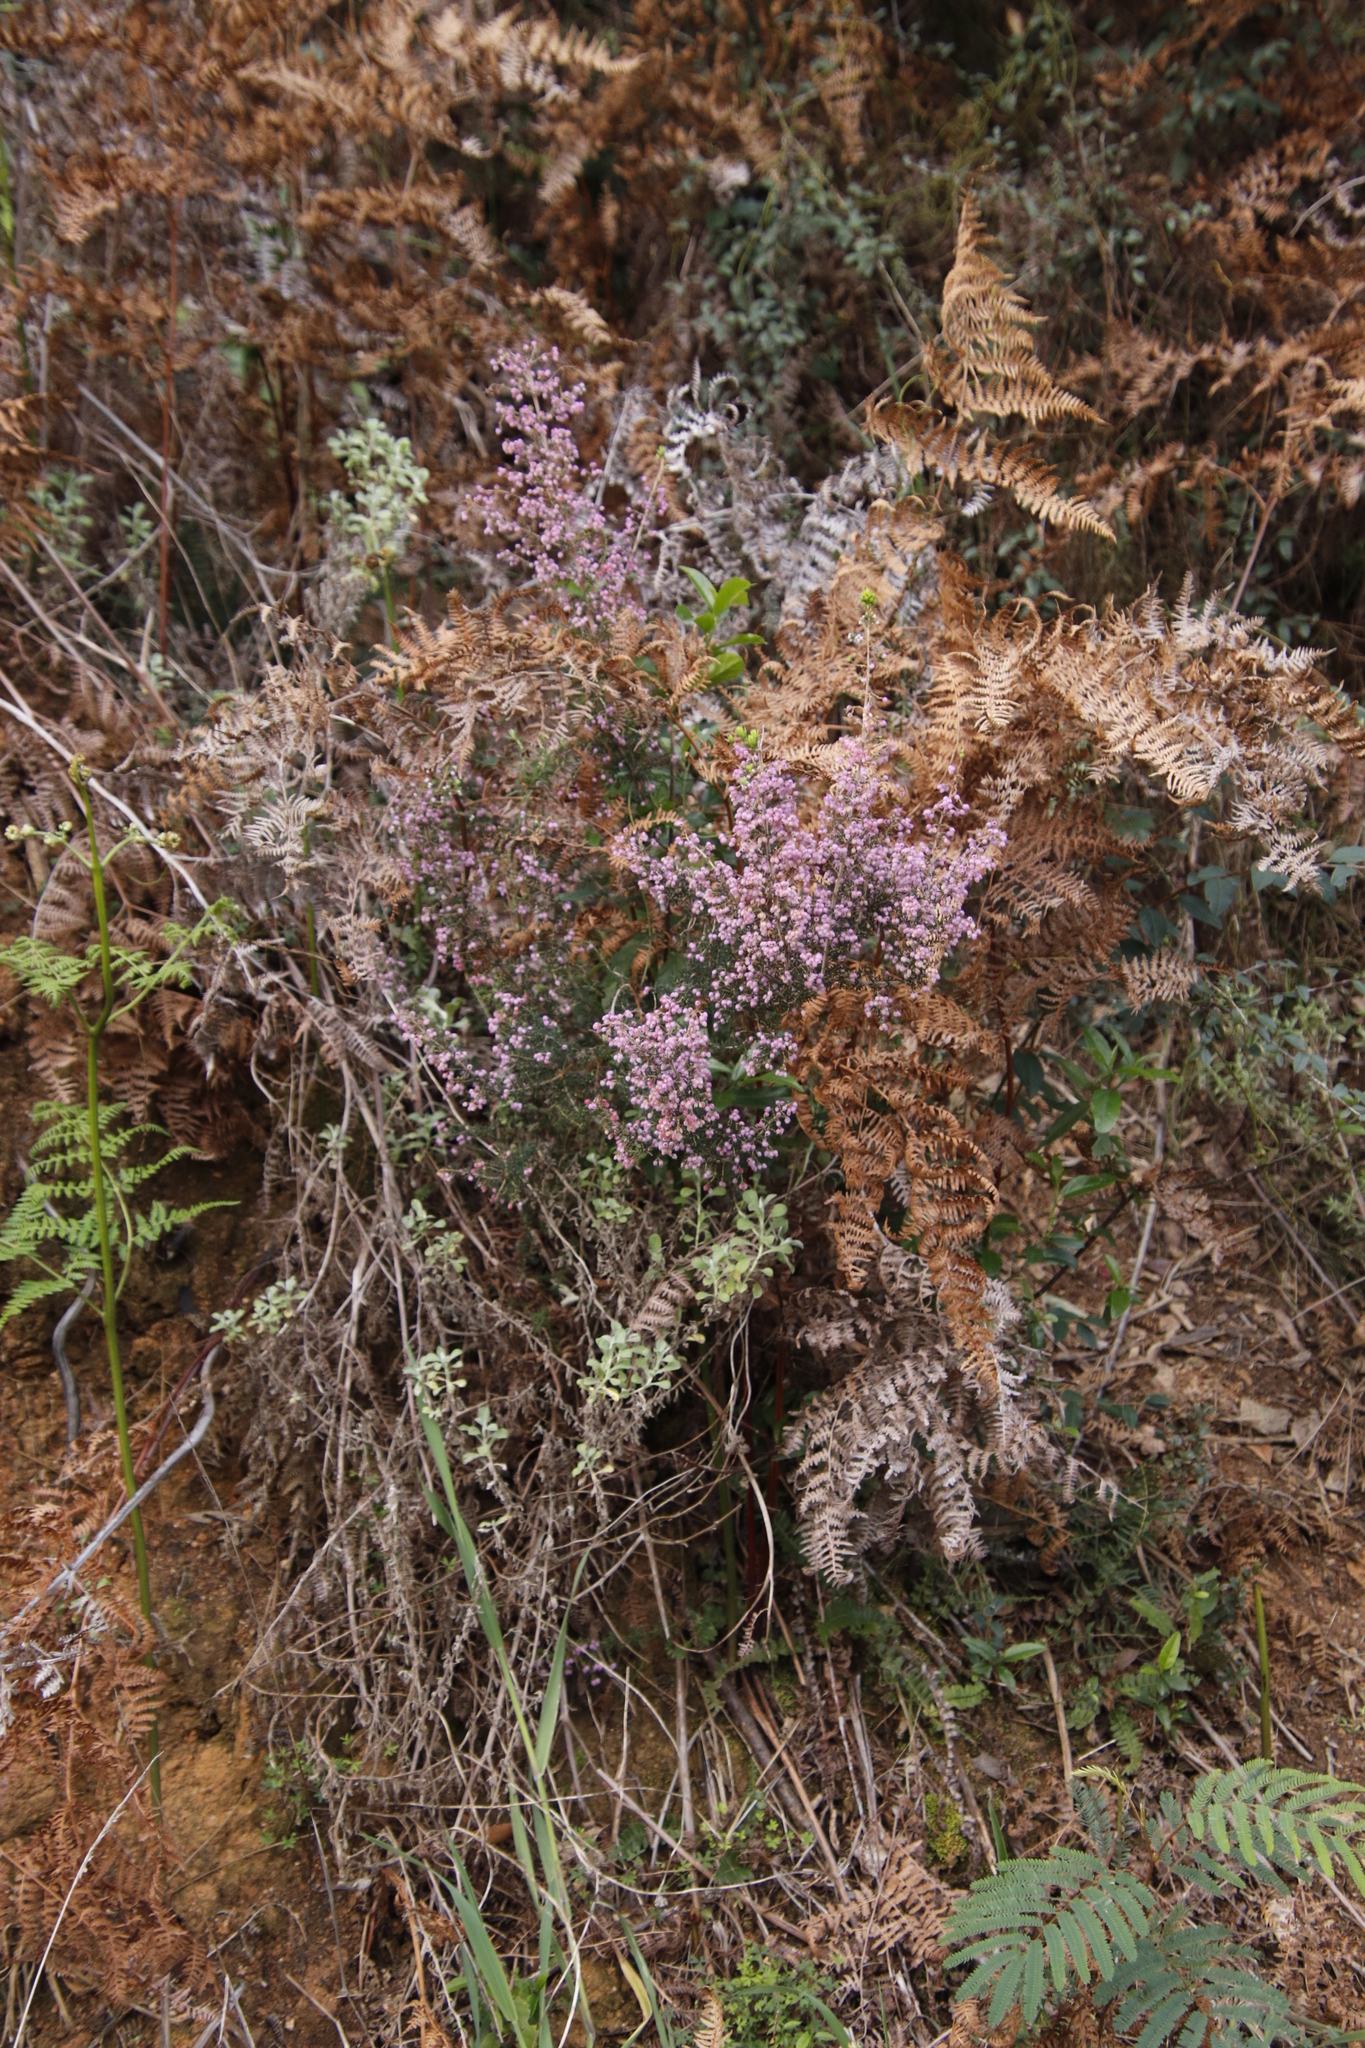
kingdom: Plantae
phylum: Tracheophyta
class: Polypodiopsida
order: Polypodiales
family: Dennstaedtiaceae
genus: Pteridium
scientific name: Pteridium aquilinum
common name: Bracken
